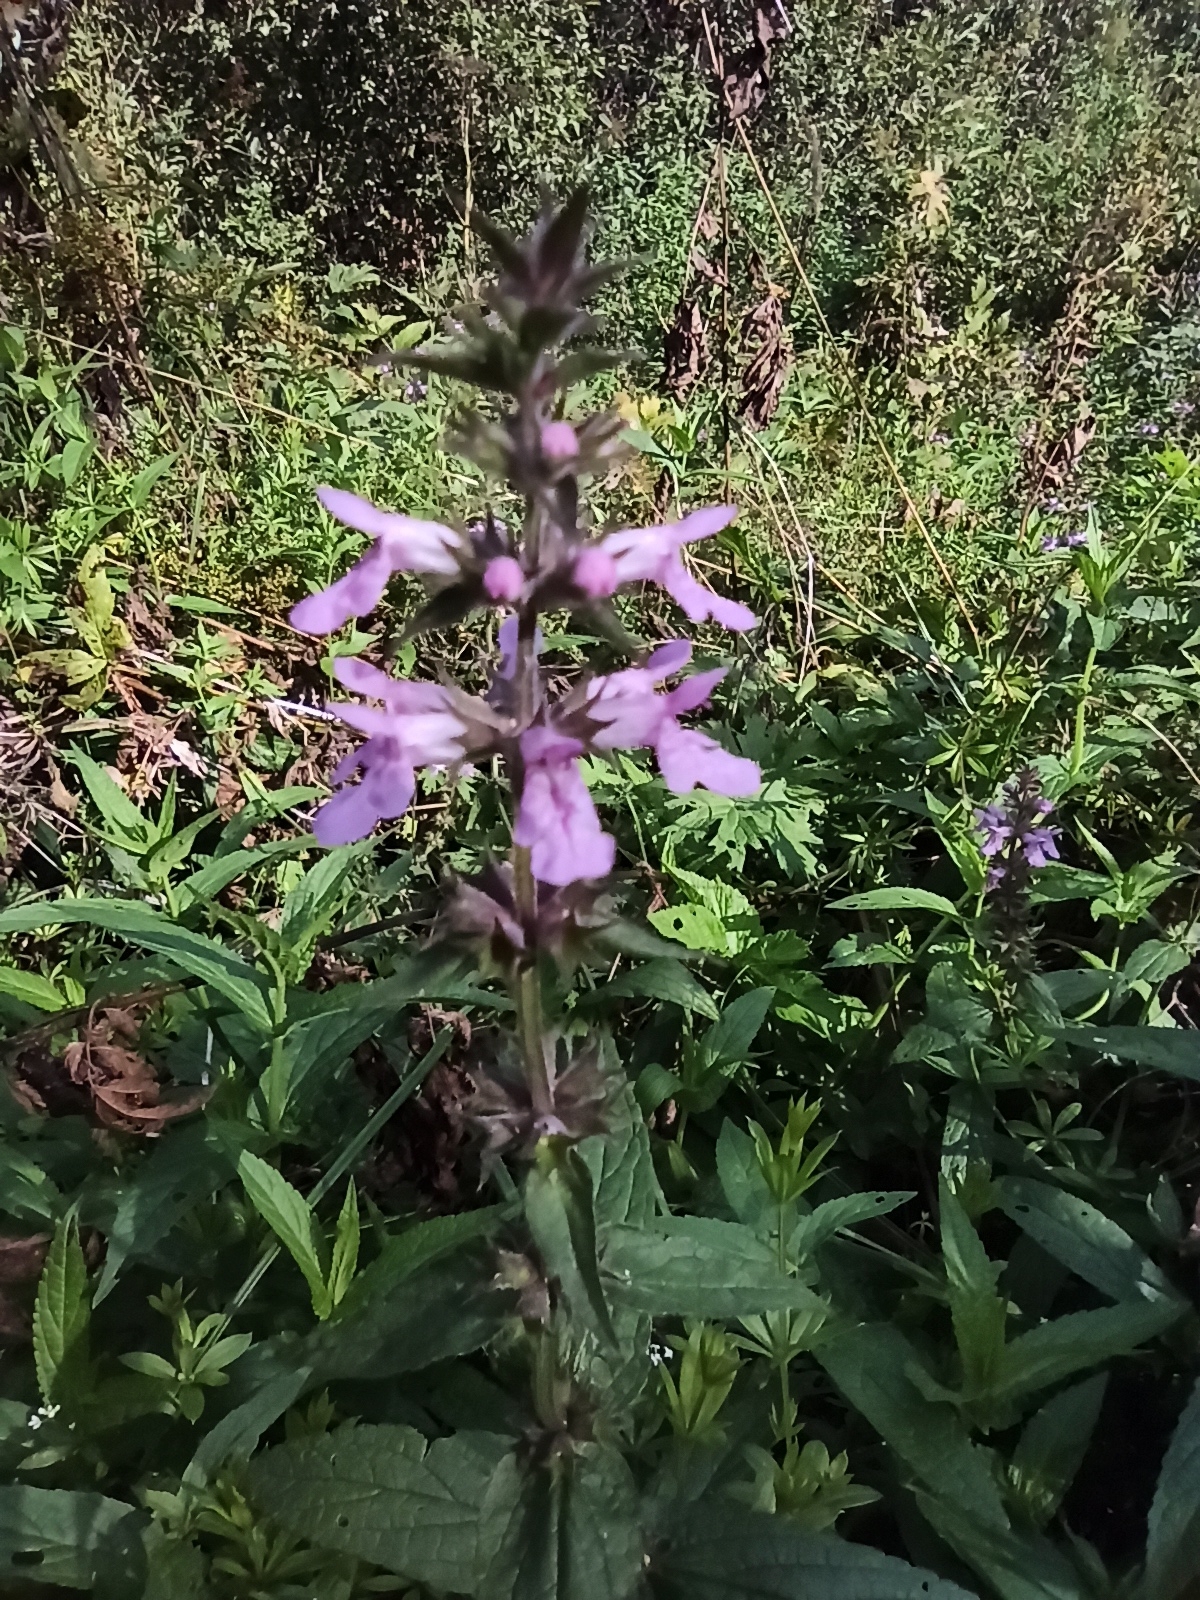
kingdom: Plantae
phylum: Tracheophyta
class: Magnoliopsida
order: Lamiales
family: Lamiaceae
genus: Stachys
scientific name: Stachys palustris
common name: Marsh woundwort
